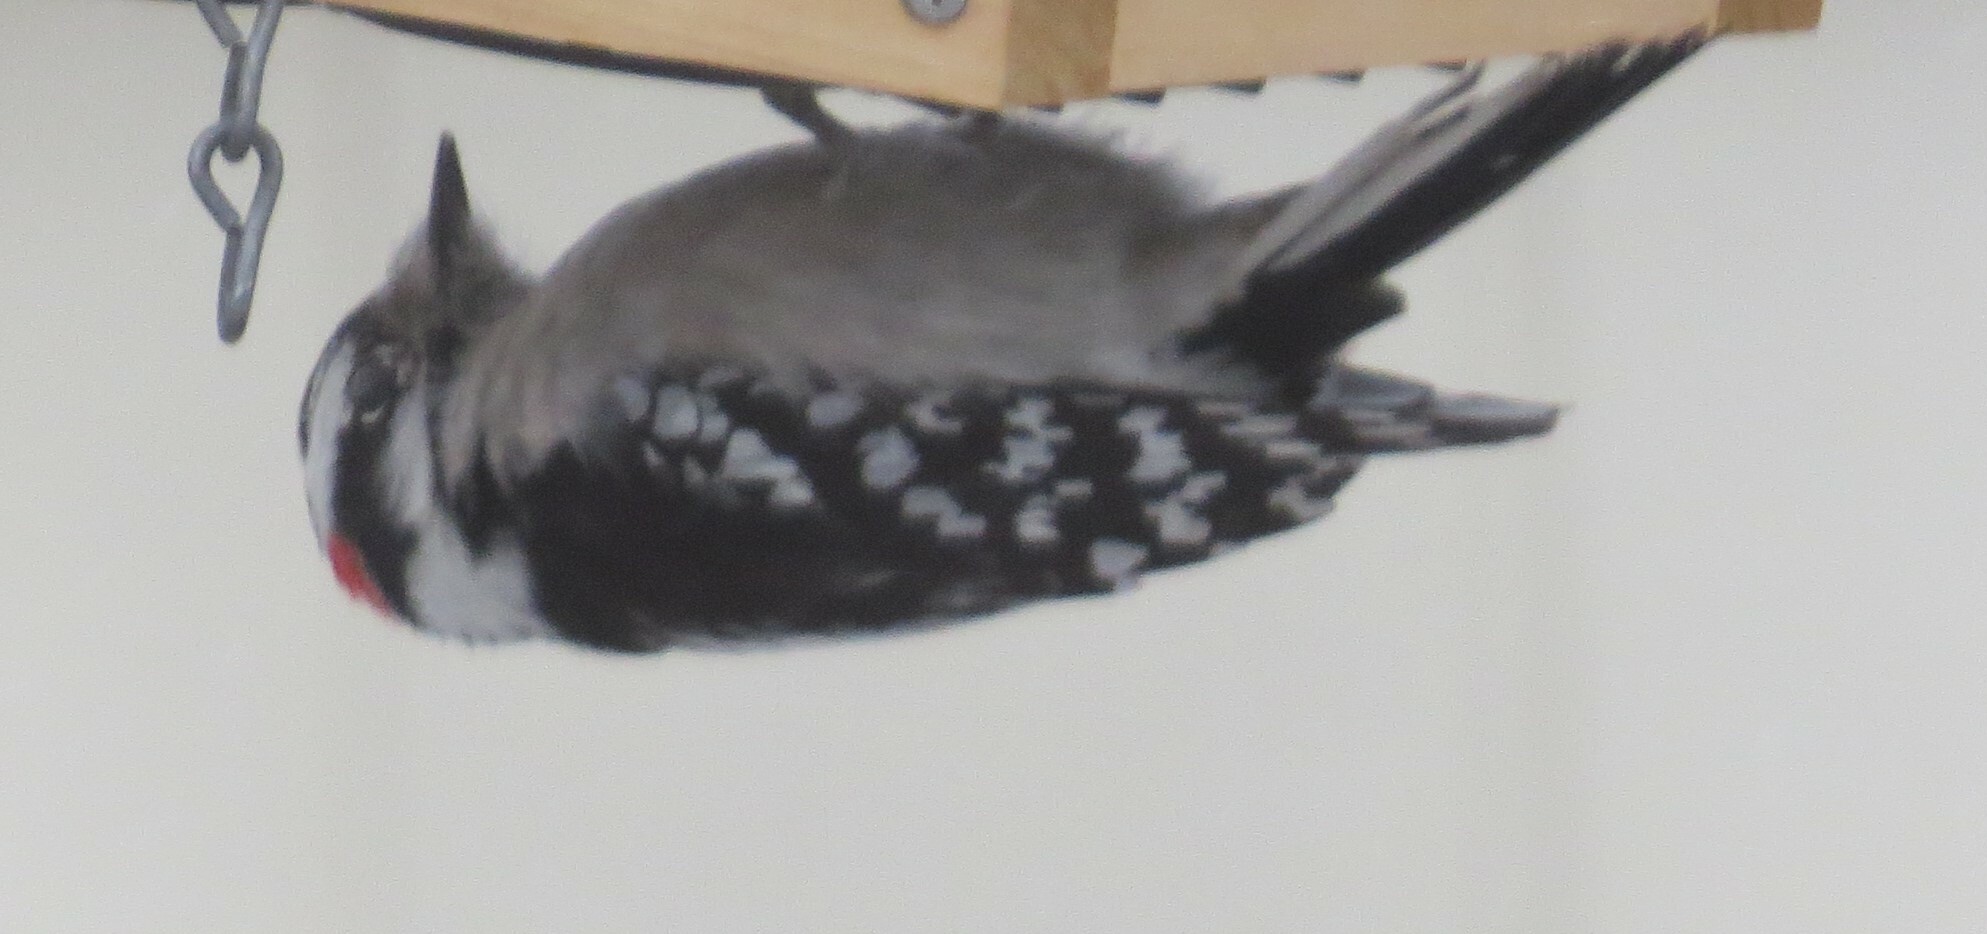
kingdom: Animalia
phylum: Chordata
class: Aves
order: Piciformes
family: Picidae
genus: Dryobates
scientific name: Dryobates pubescens
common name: Downy woodpecker
